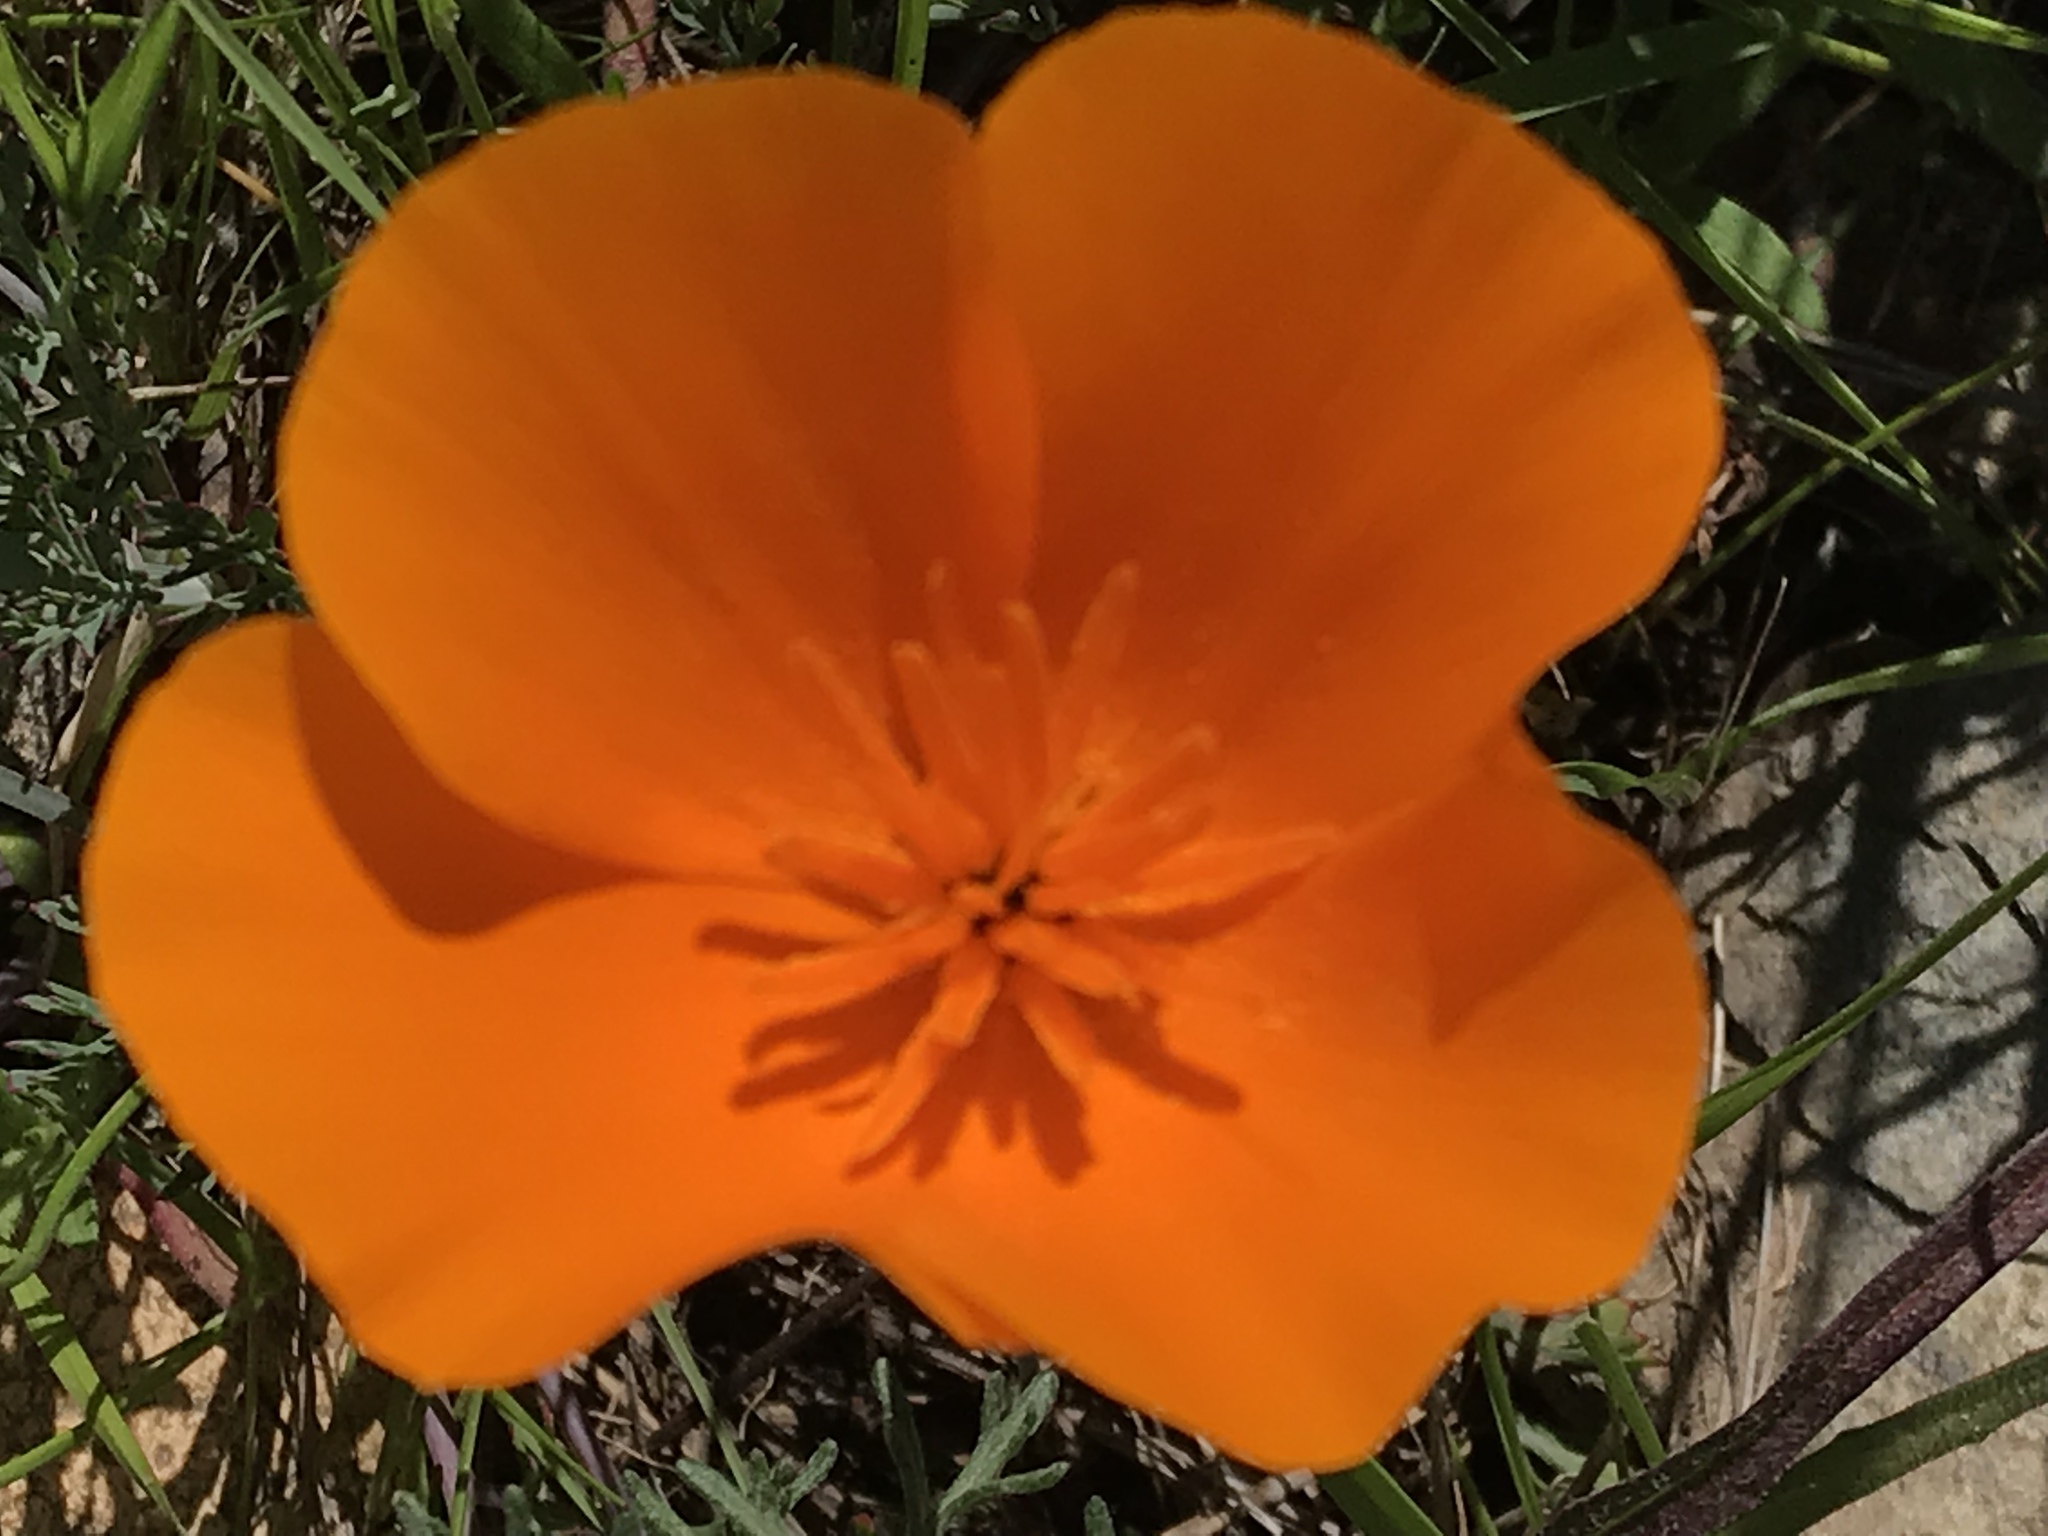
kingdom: Plantae
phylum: Tracheophyta
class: Magnoliopsida
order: Ranunculales
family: Papaveraceae
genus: Eschscholzia
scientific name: Eschscholzia californica
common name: California poppy
